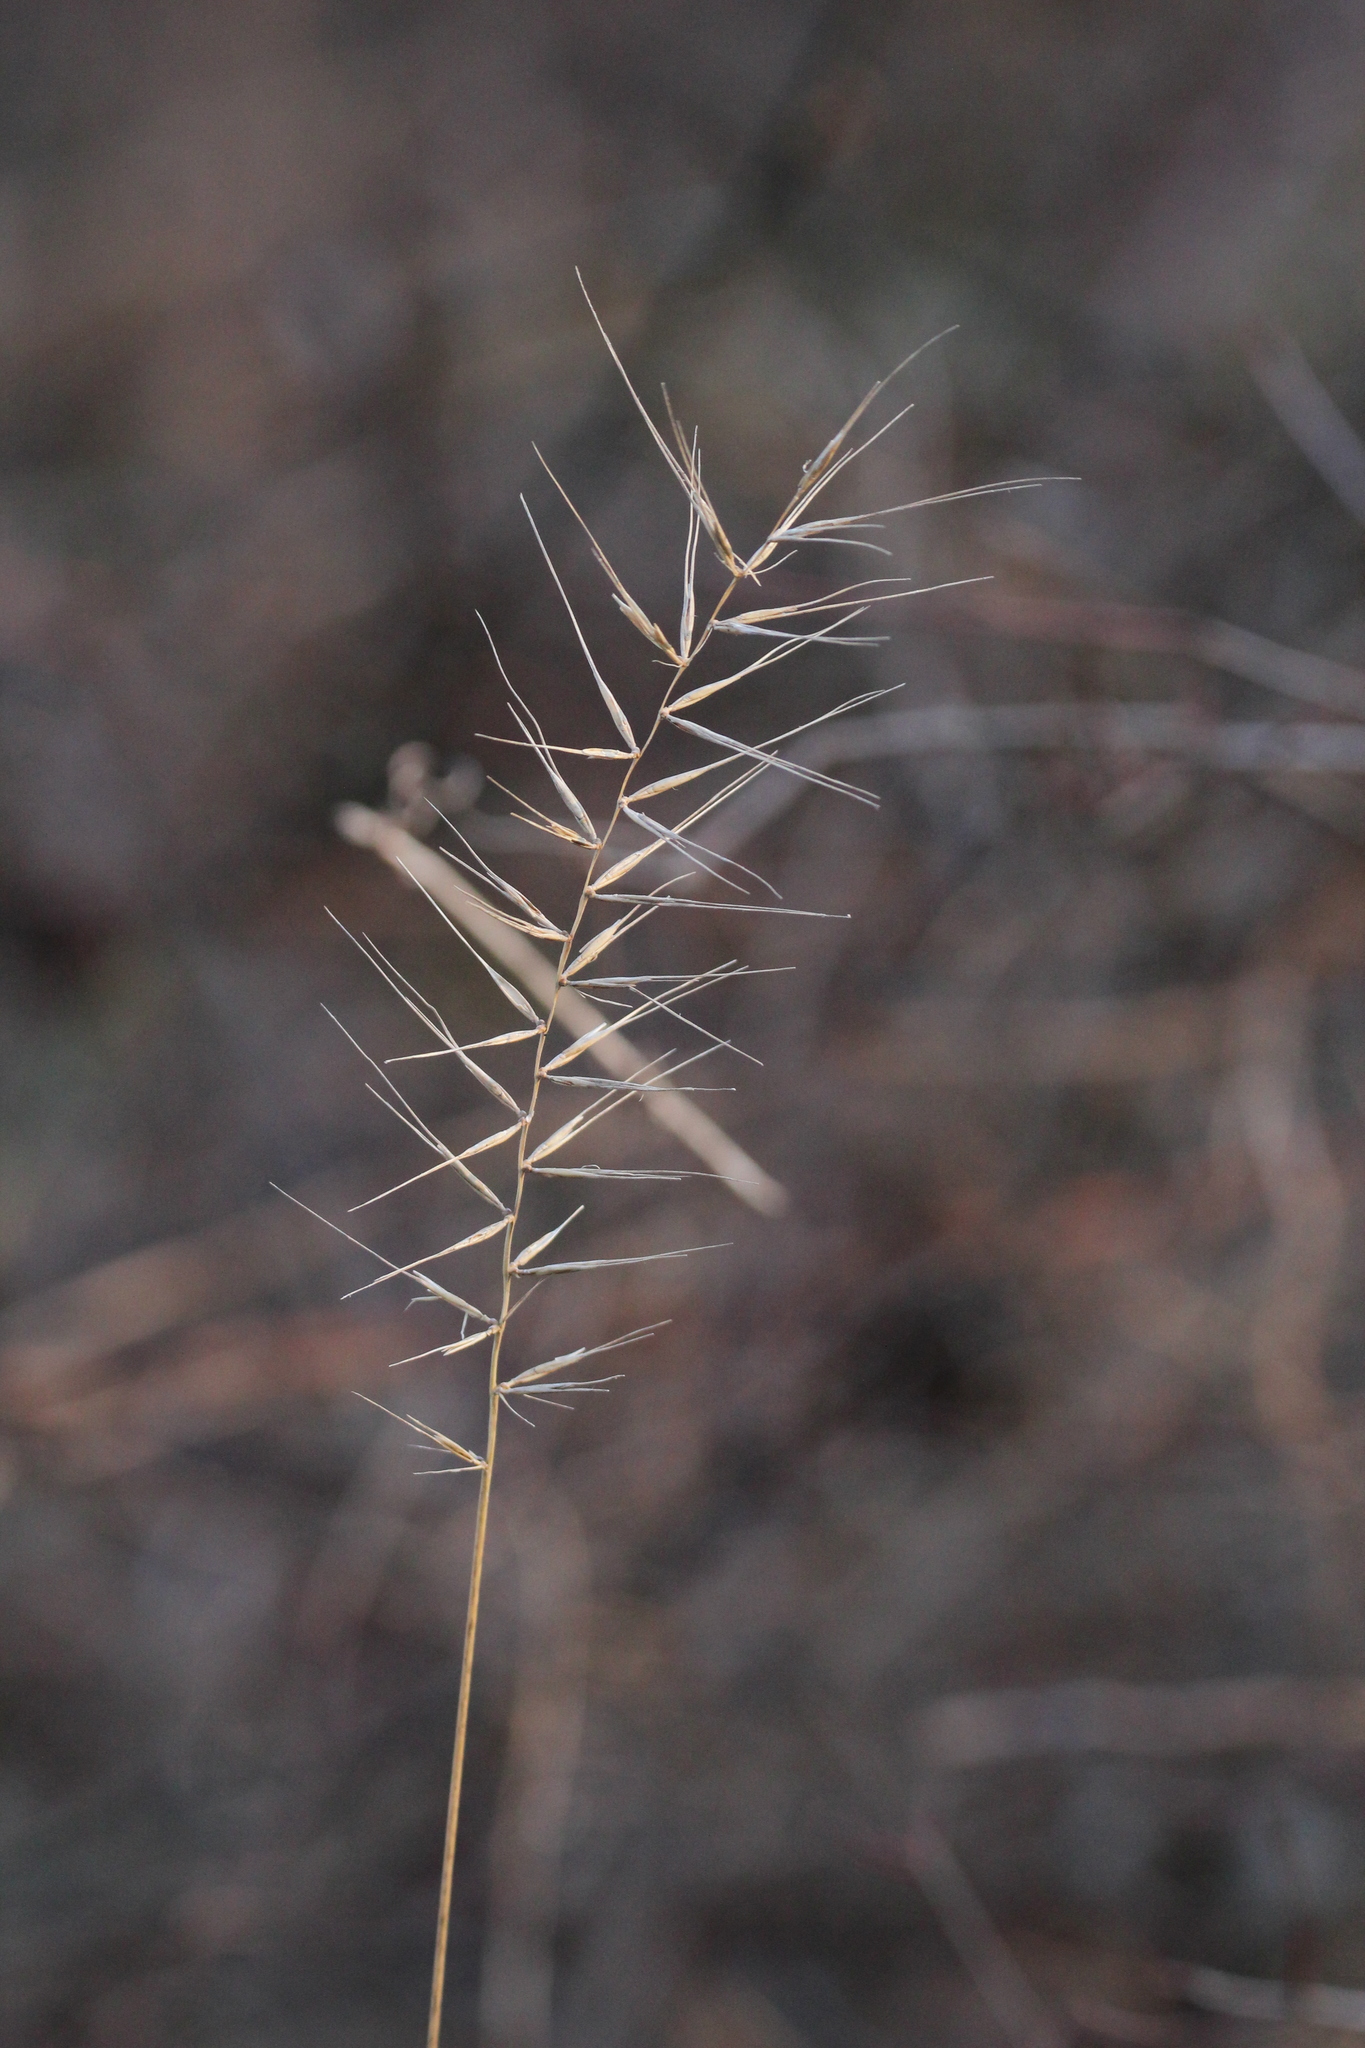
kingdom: Plantae
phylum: Tracheophyta
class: Liliopsida
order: Poales
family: Poaceae
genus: Elymus
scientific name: Elymus hystrix
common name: Bottlebrush grass
